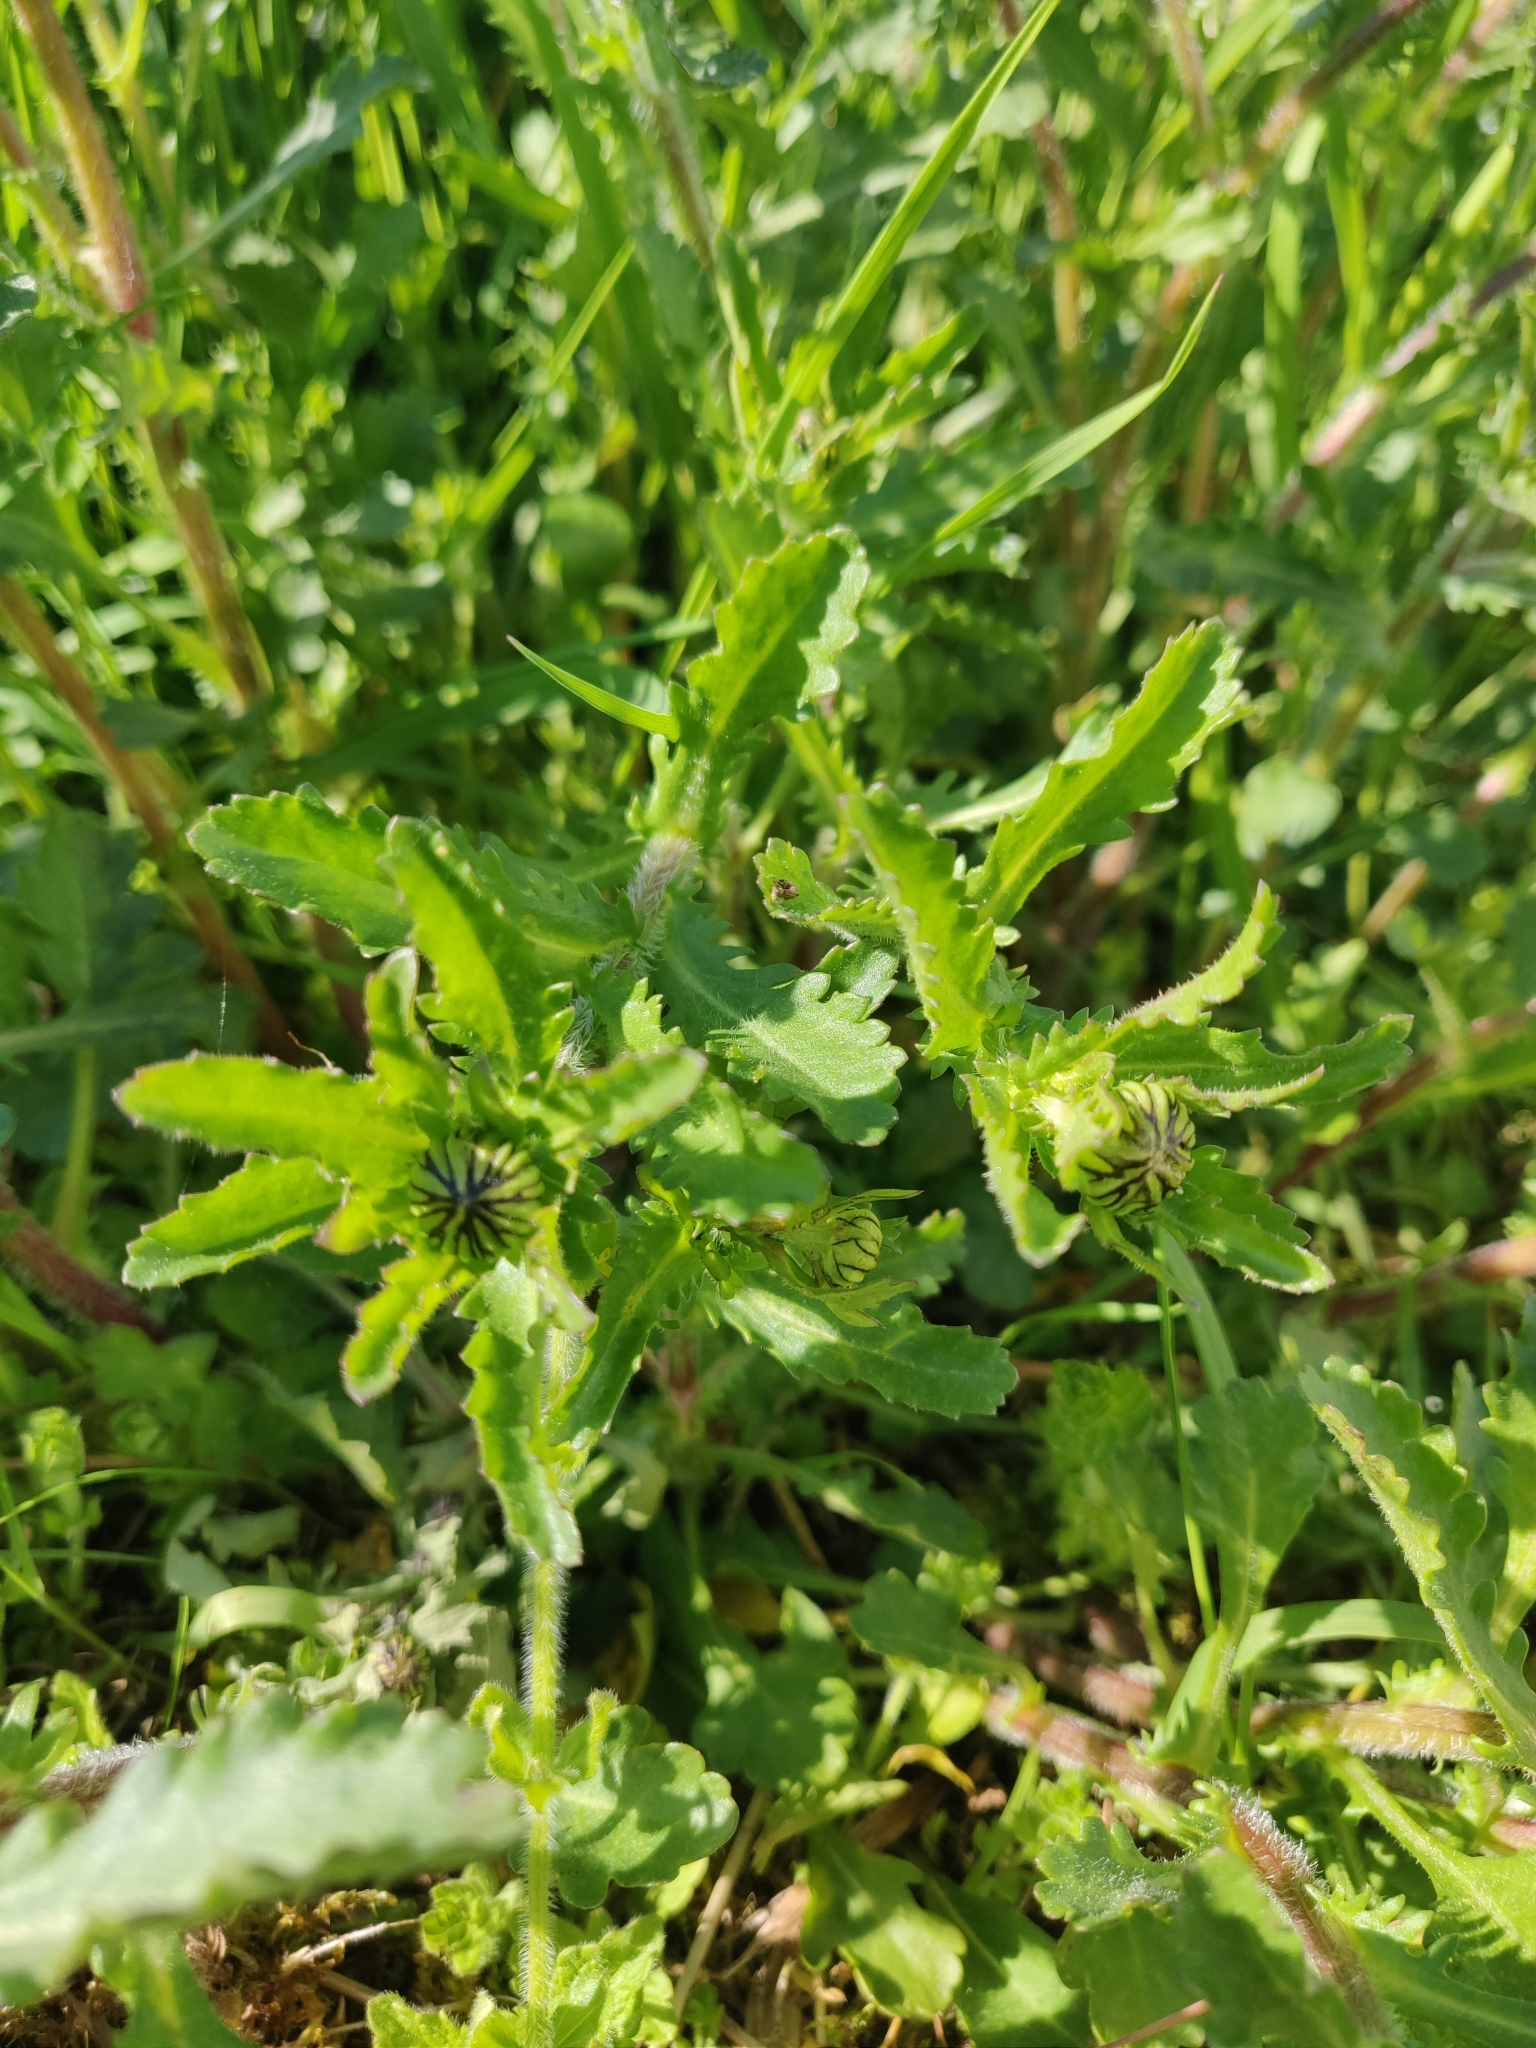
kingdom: Plantae
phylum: Tracheophyta
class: Magnoliopsida
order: Asterales
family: Asteraceae
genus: Leucanthemum
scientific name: Leucanthemum vulgare
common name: Oxeye daisy
